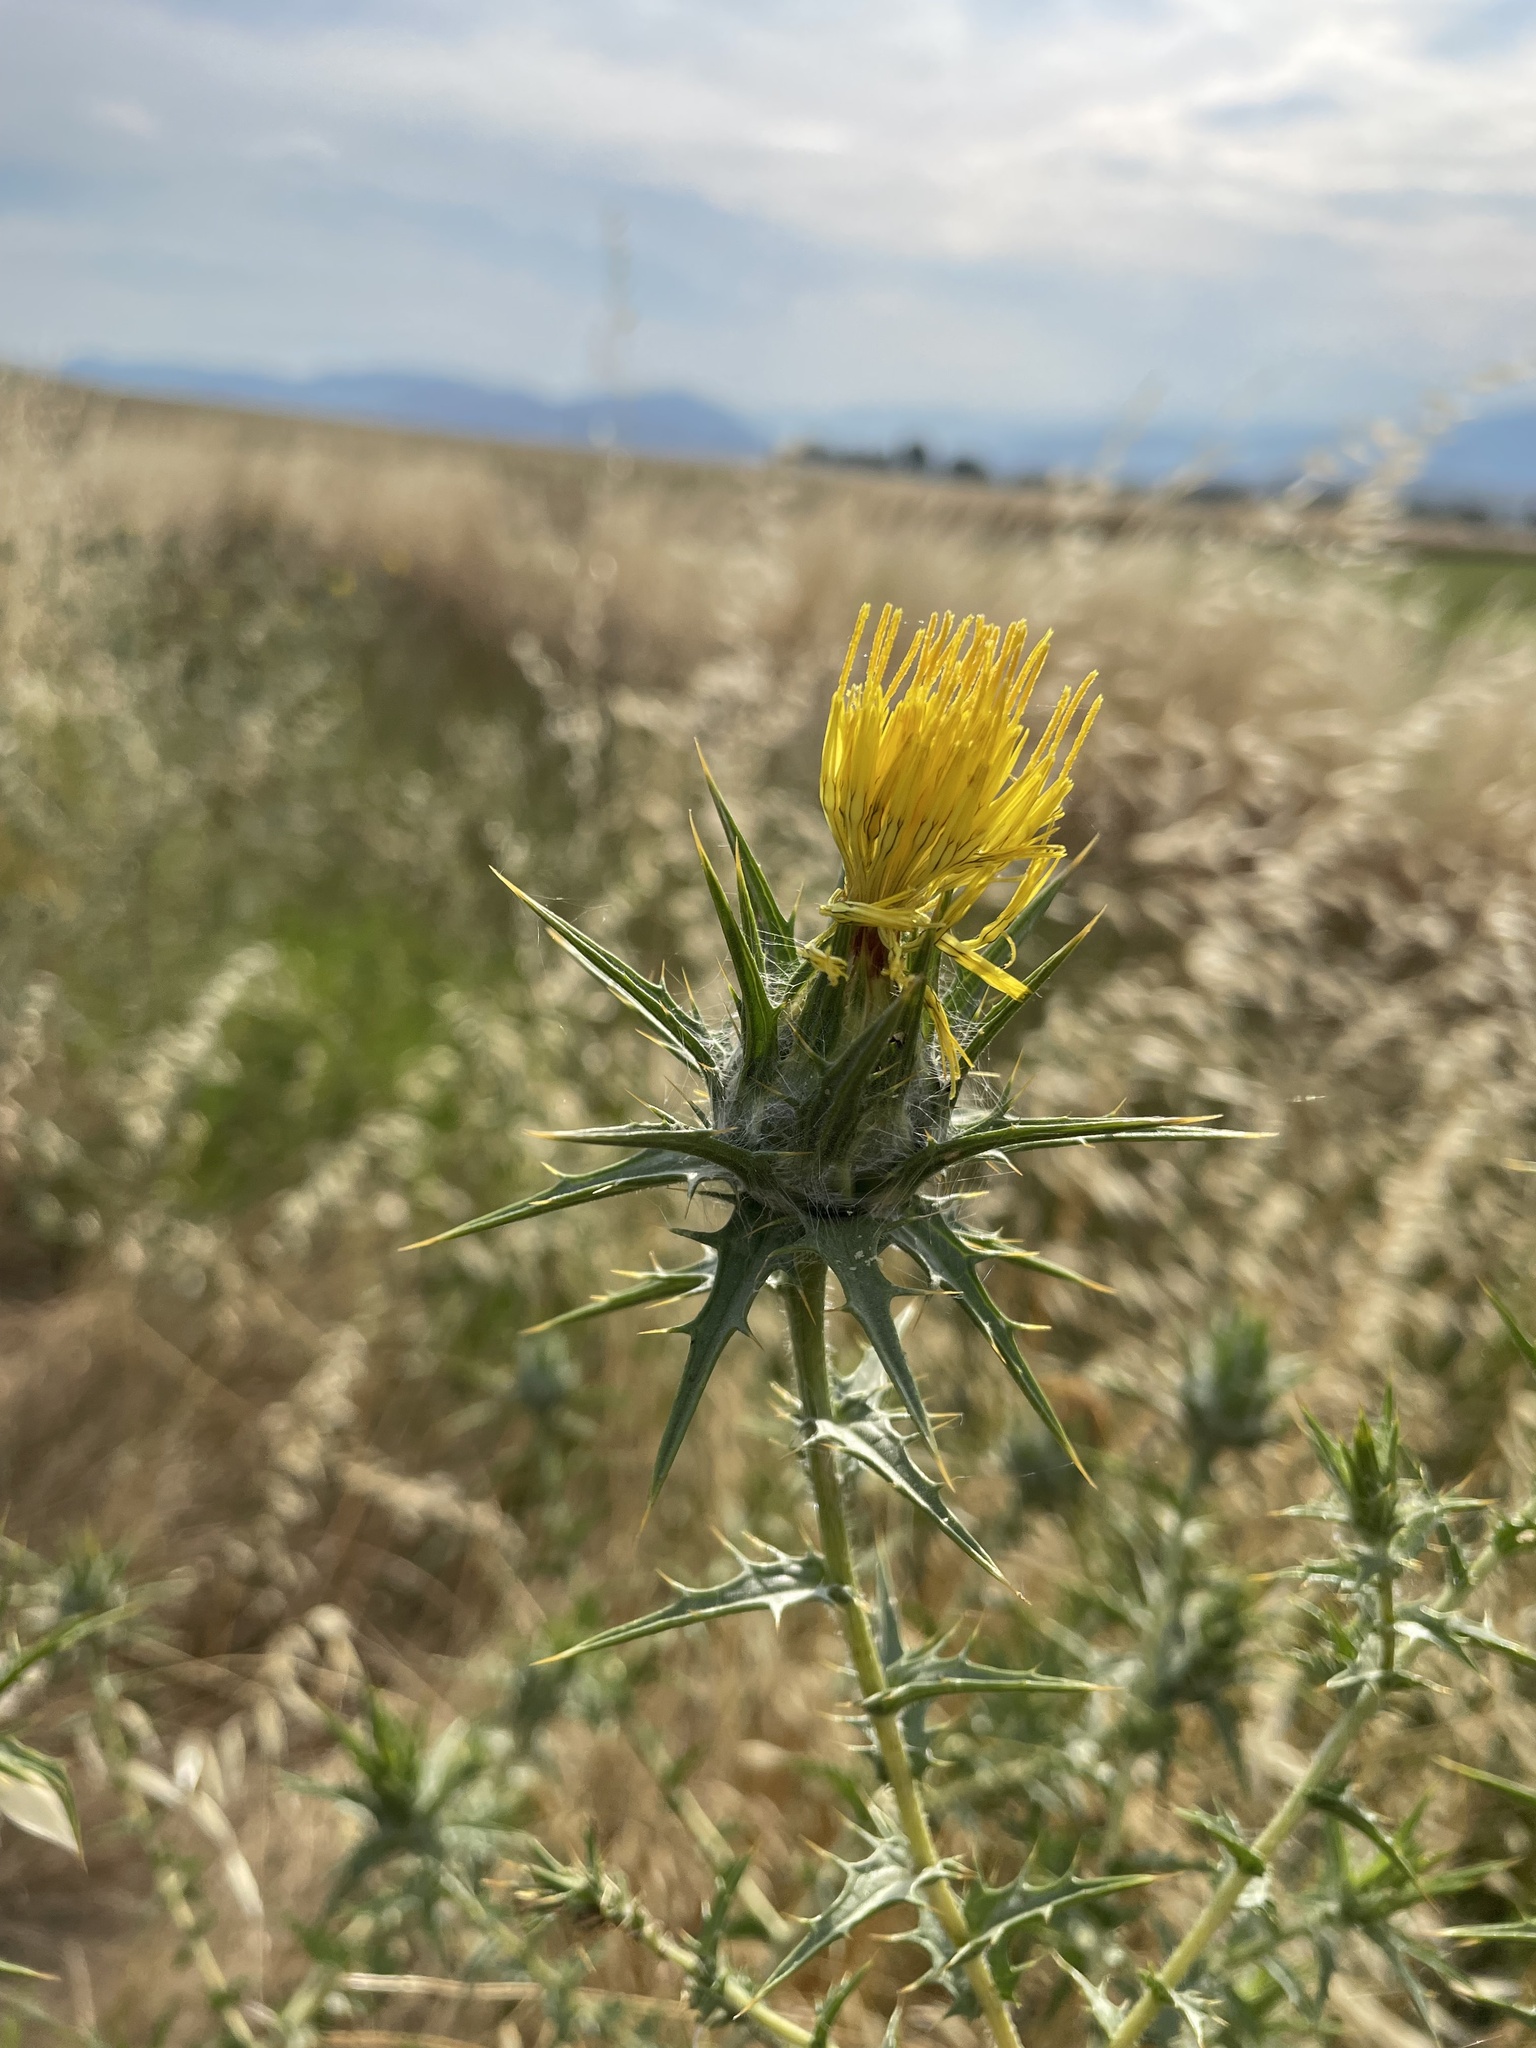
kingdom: Plantae
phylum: Tracheophyta
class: Magnoliopsida
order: Asterales
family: Asteraceae
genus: Carthamus
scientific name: Carthamus lanatus
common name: Downy safflower
